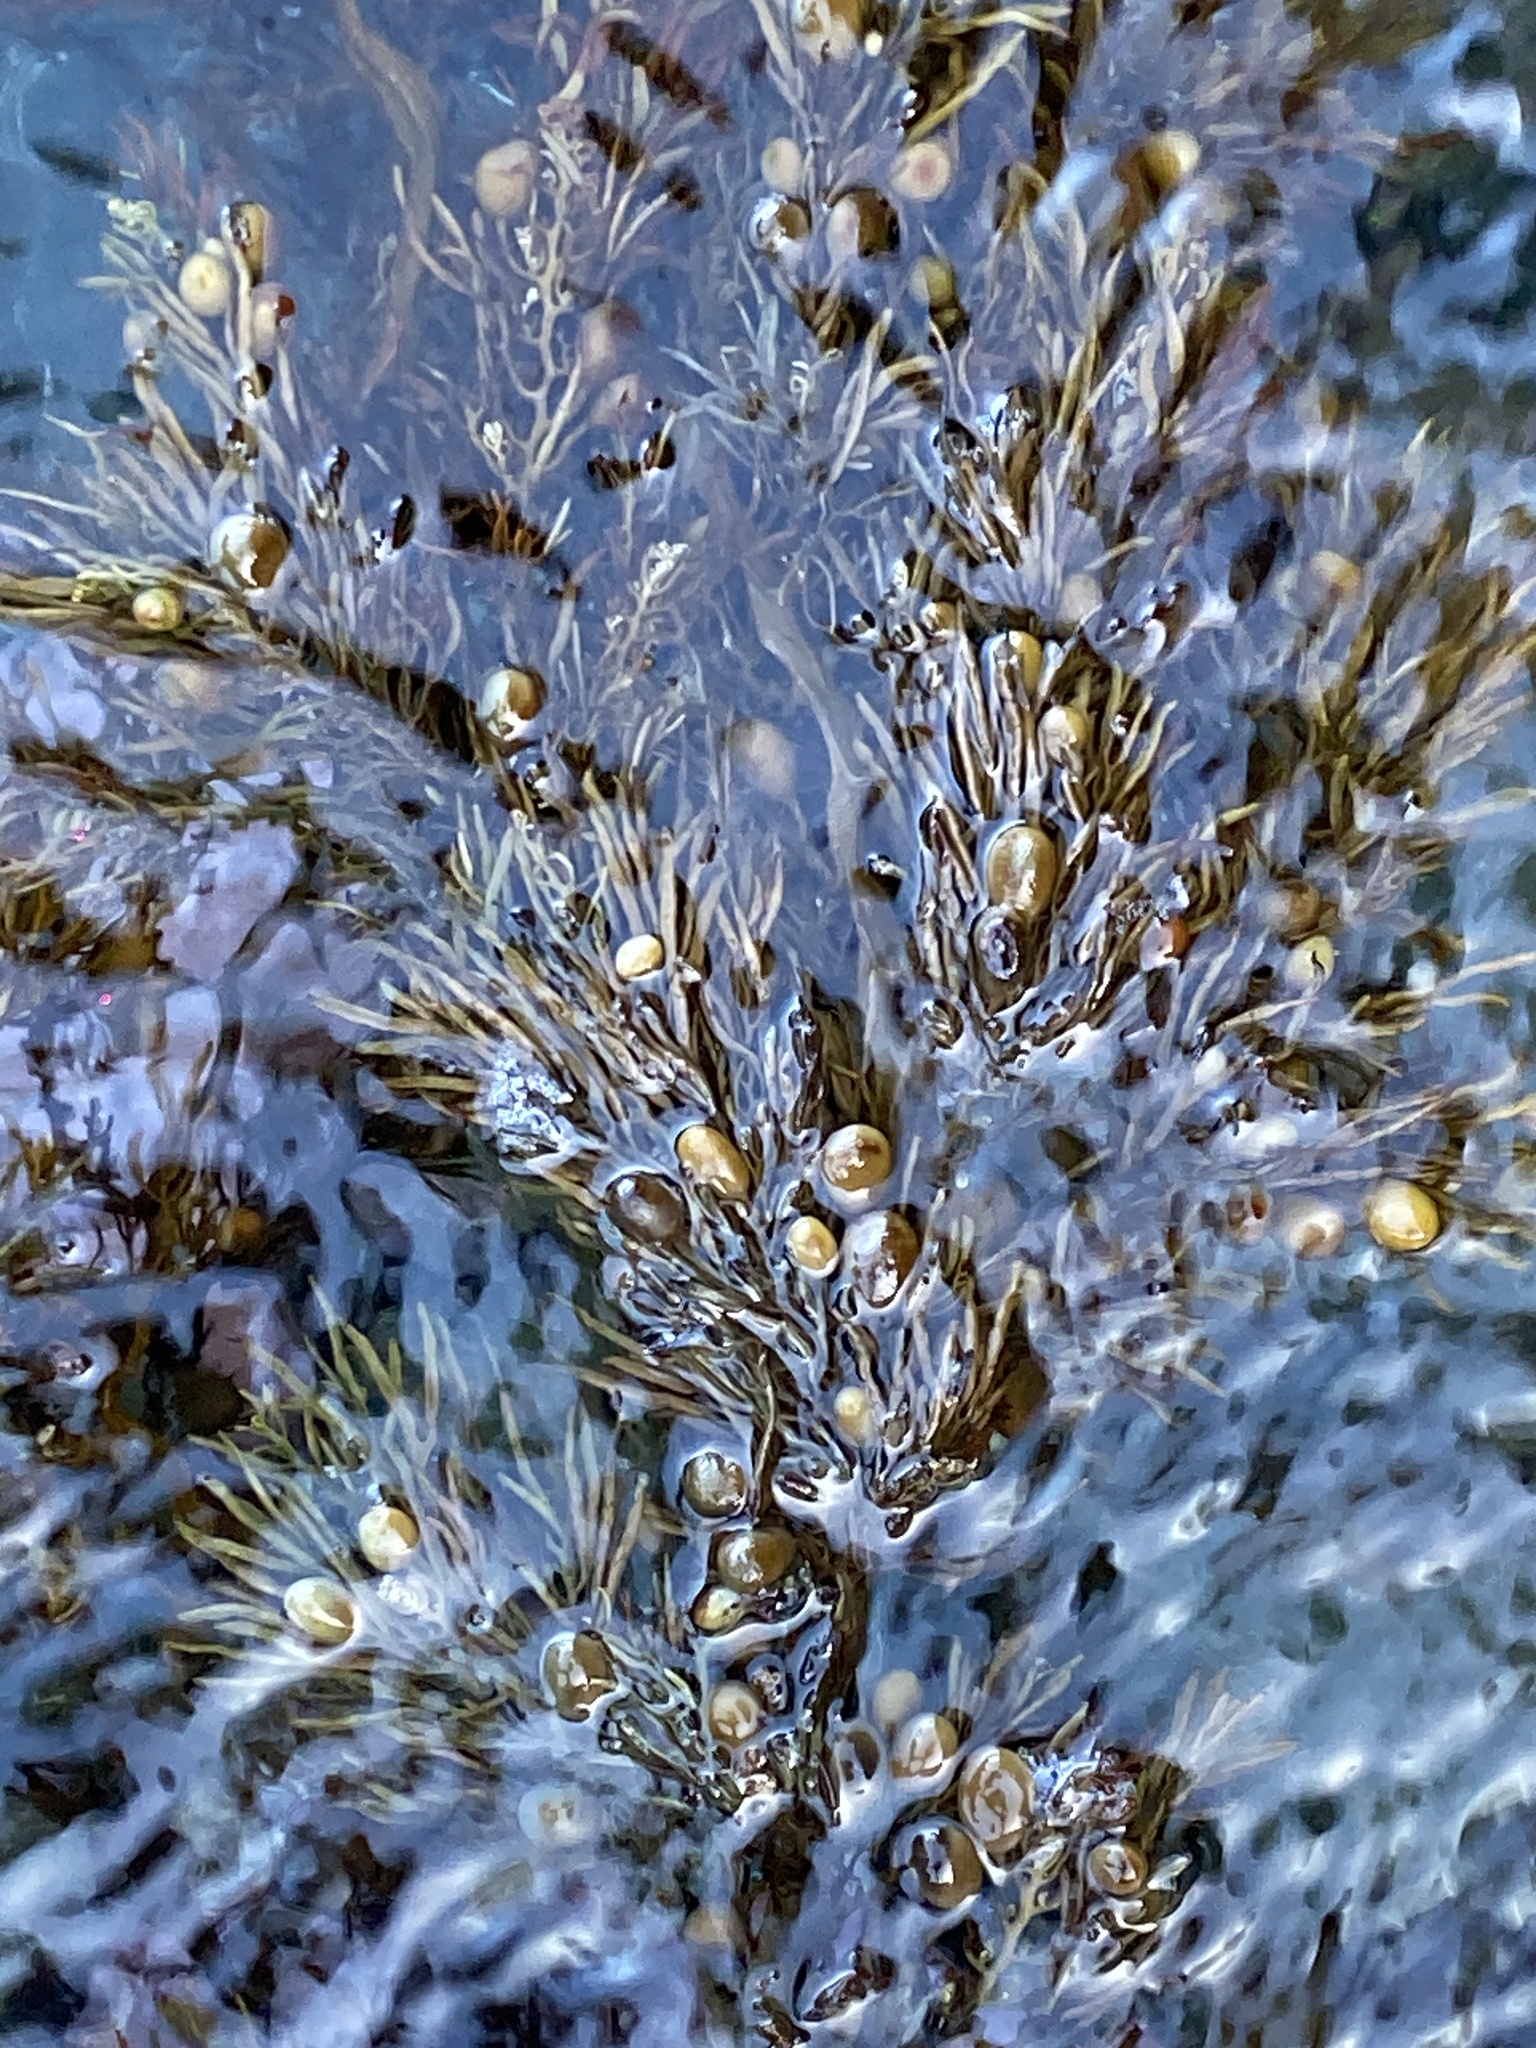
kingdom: Chromista
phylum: Ochrophyta
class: Phaeophyceae
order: Fucales
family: Sargassaceae
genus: Cystophora
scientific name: Cystophora retroflexa
